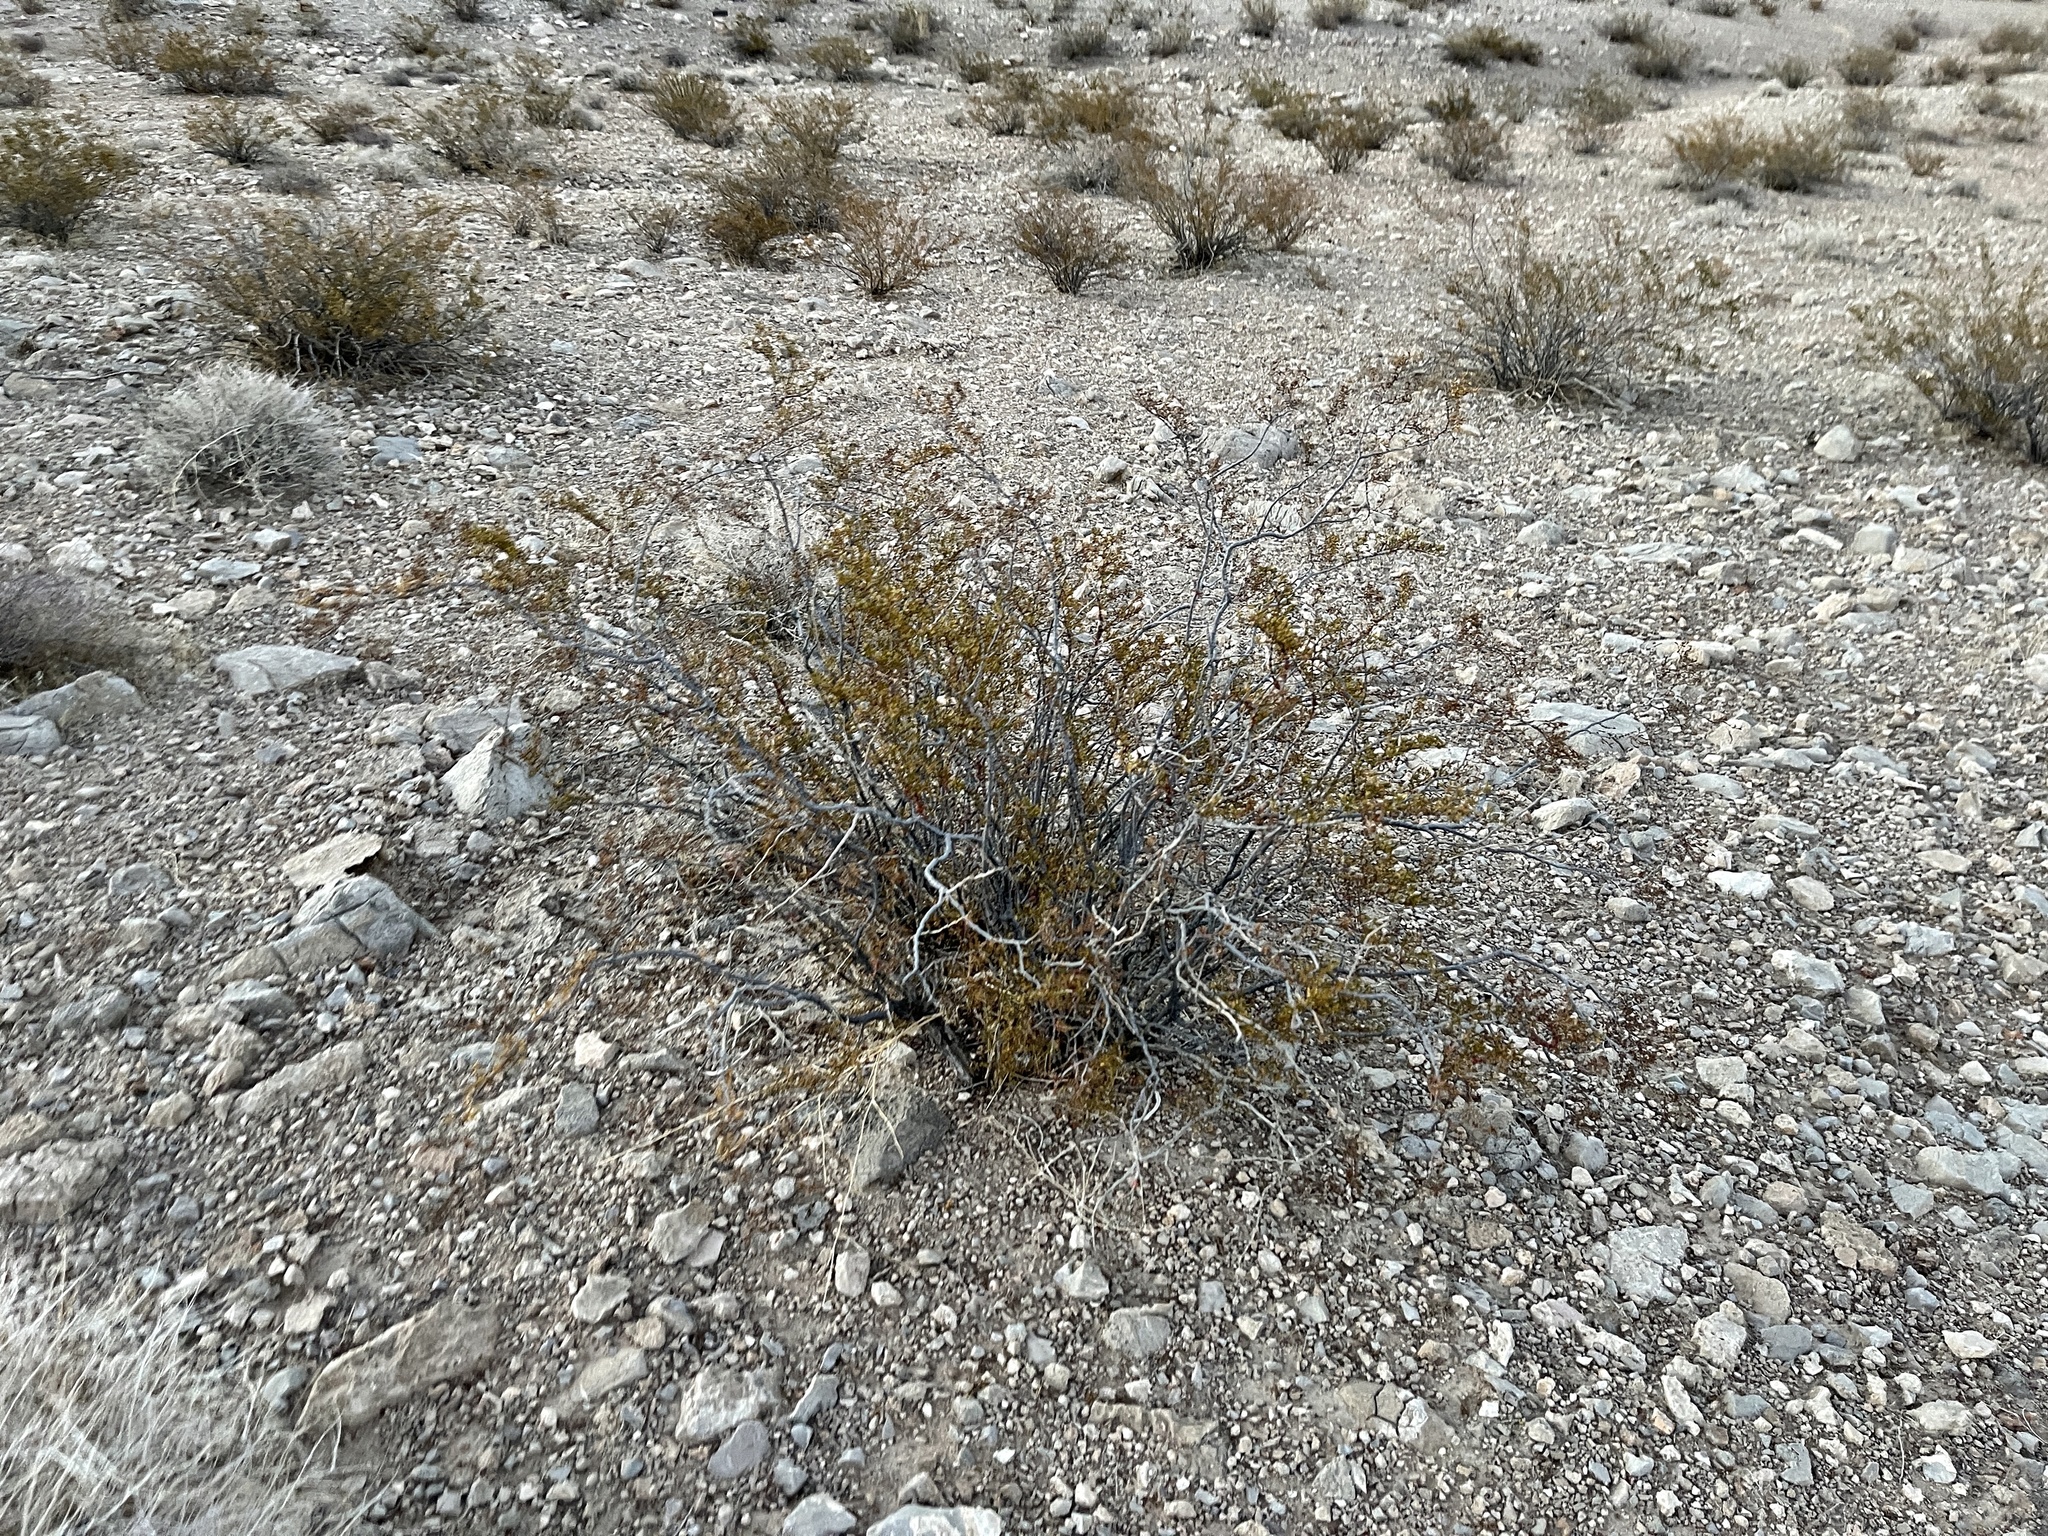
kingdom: Plantae
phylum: Tracheophyta
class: Magnoliopsida
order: Zygophyllales
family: Zygophyllaceae
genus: Larrea
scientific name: Larrea tridentata
